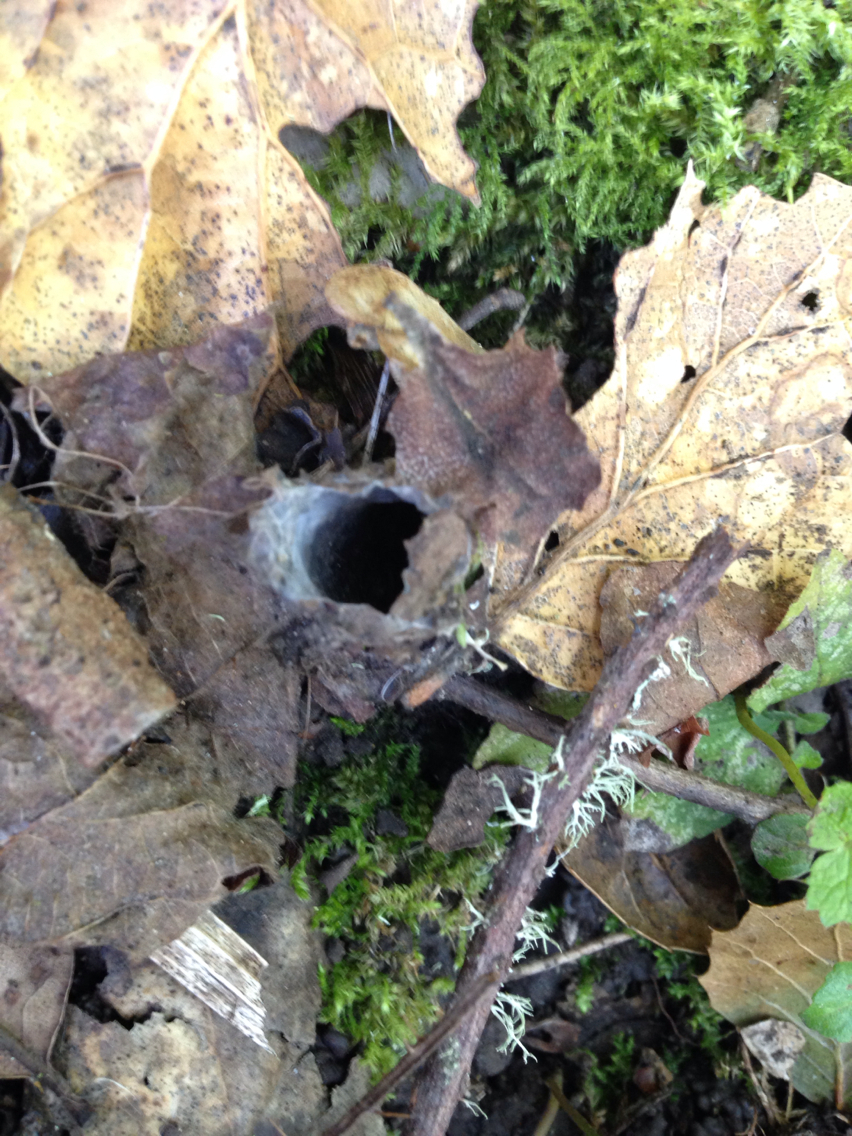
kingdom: Animalia
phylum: Arthropoda
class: Arachnida
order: Araneae
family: Antrodiaetidae
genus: Atypoides
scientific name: Atypoides riversi
